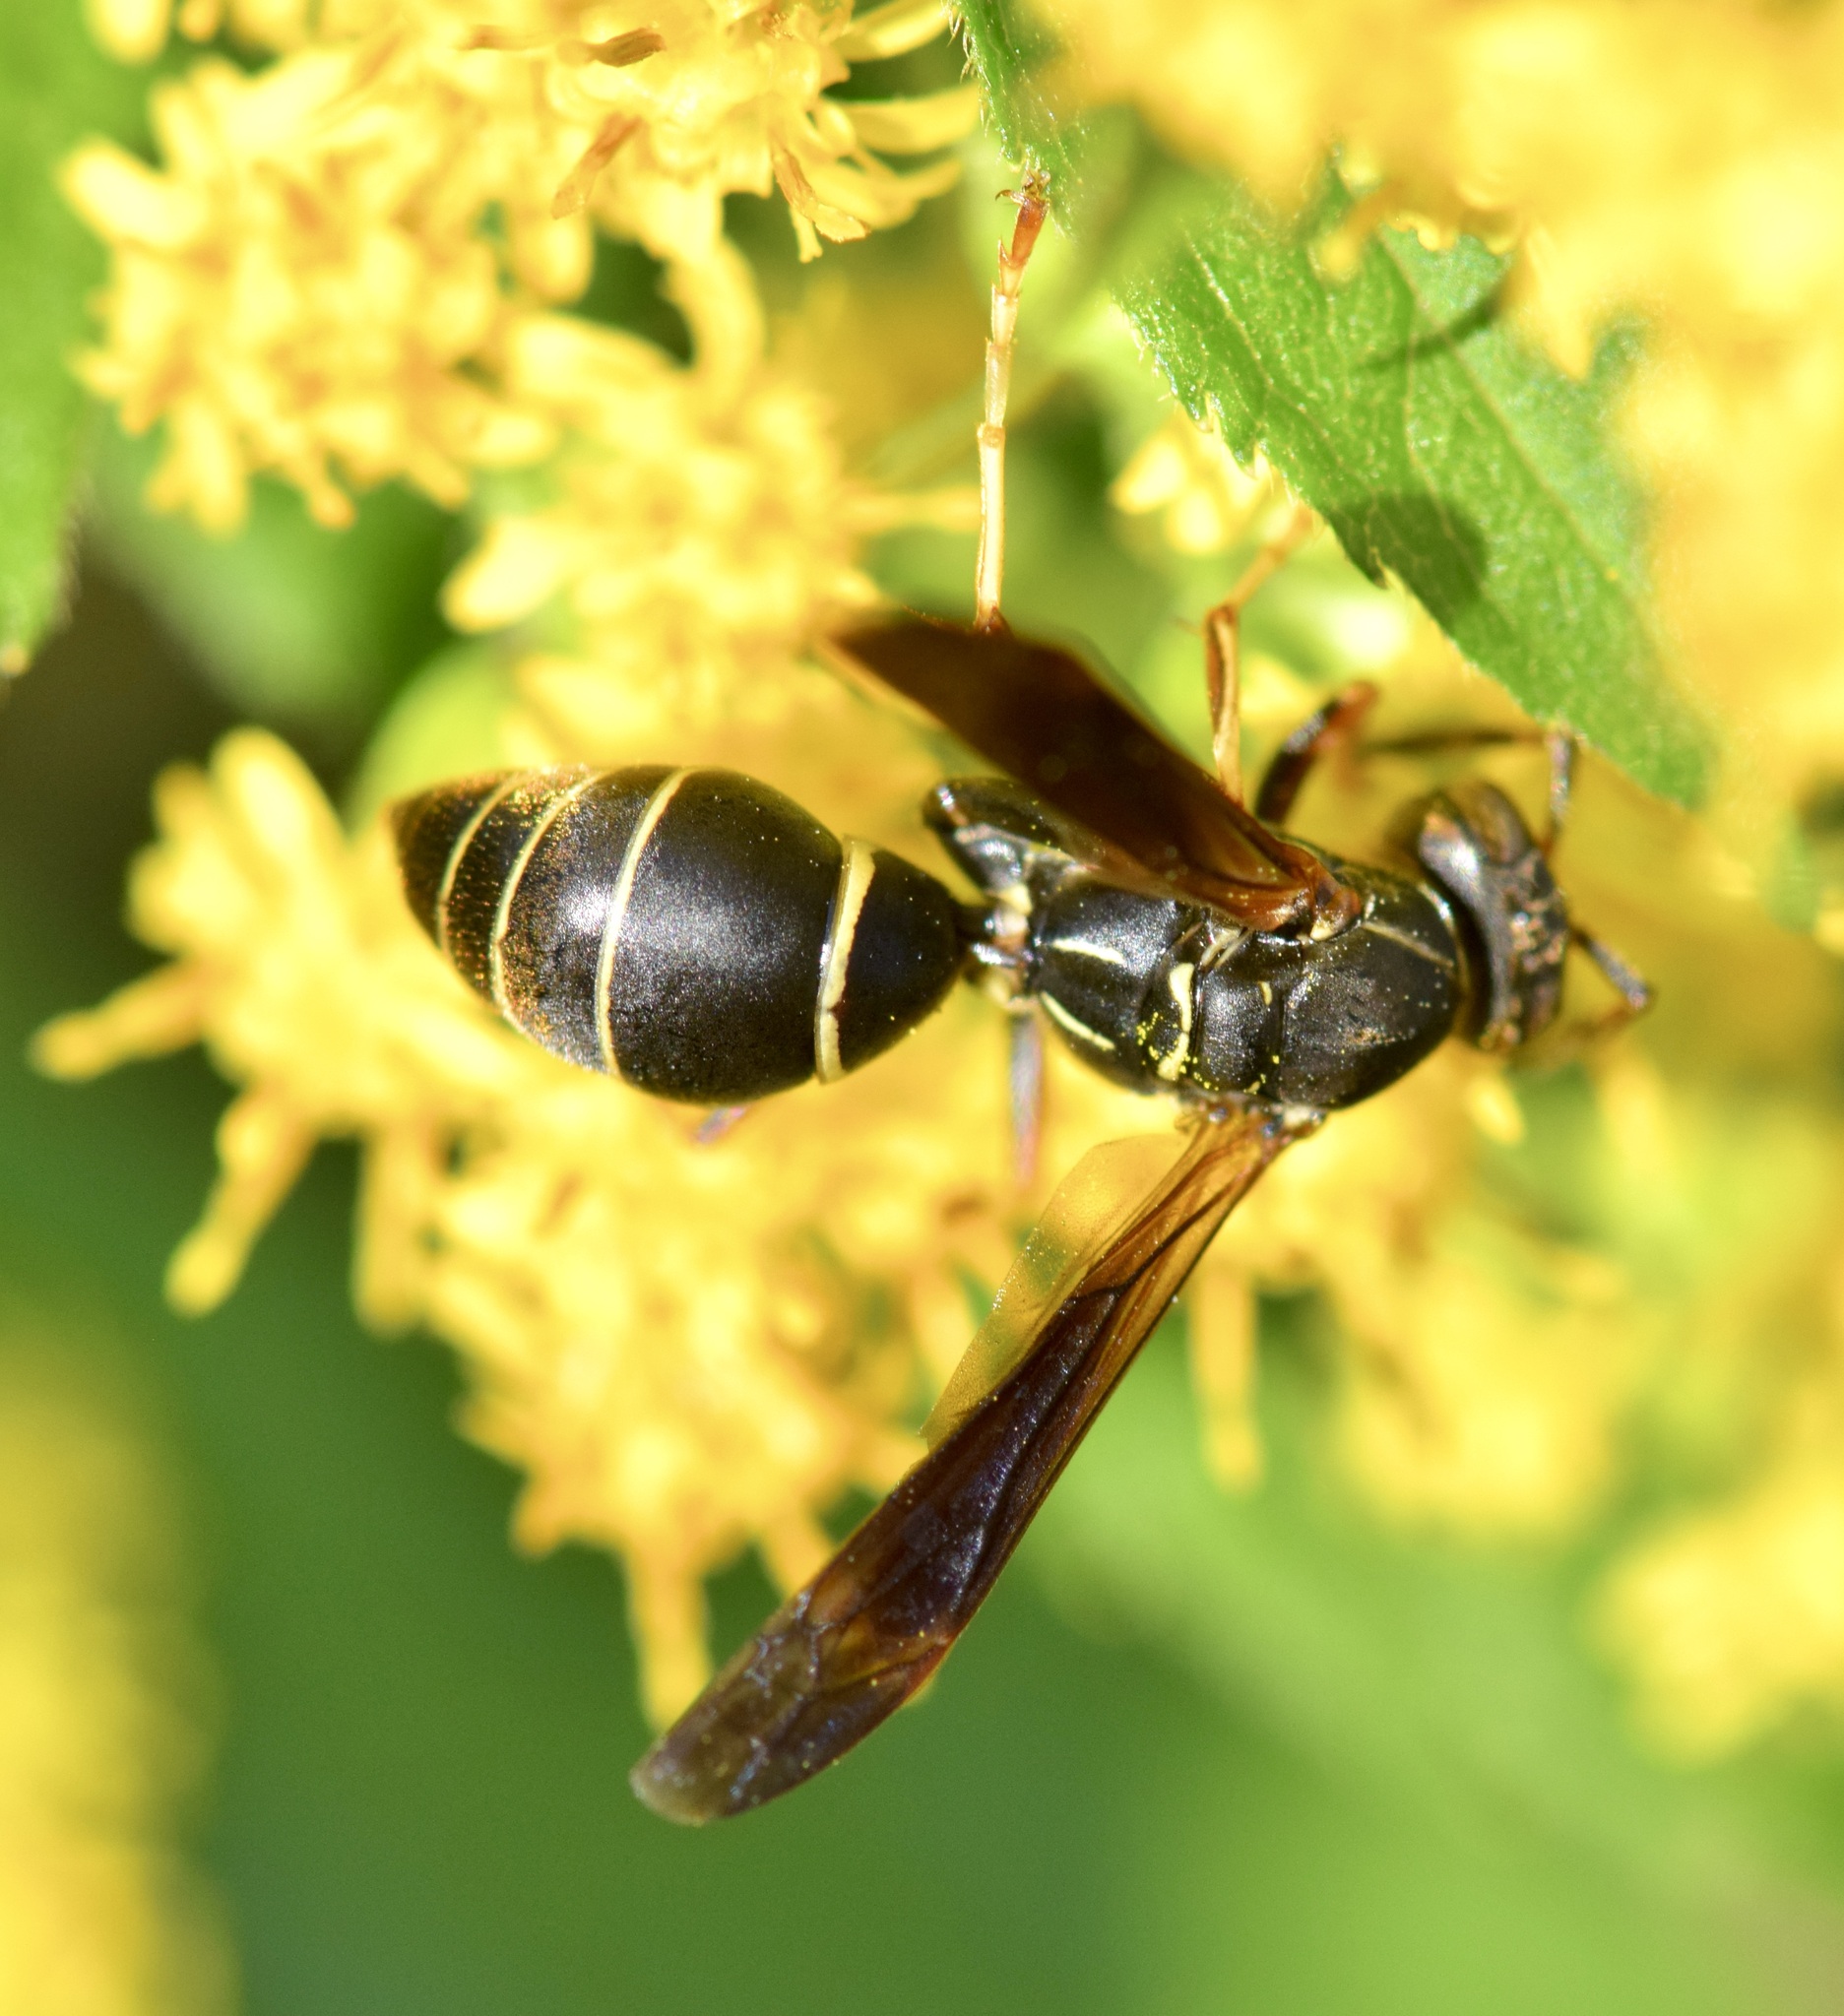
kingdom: Animalia
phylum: Arthropoda
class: Insecta
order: Hymenoptera
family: Eumenidae
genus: Polistes
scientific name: Polistes fuscatus
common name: Dark paper wasp
